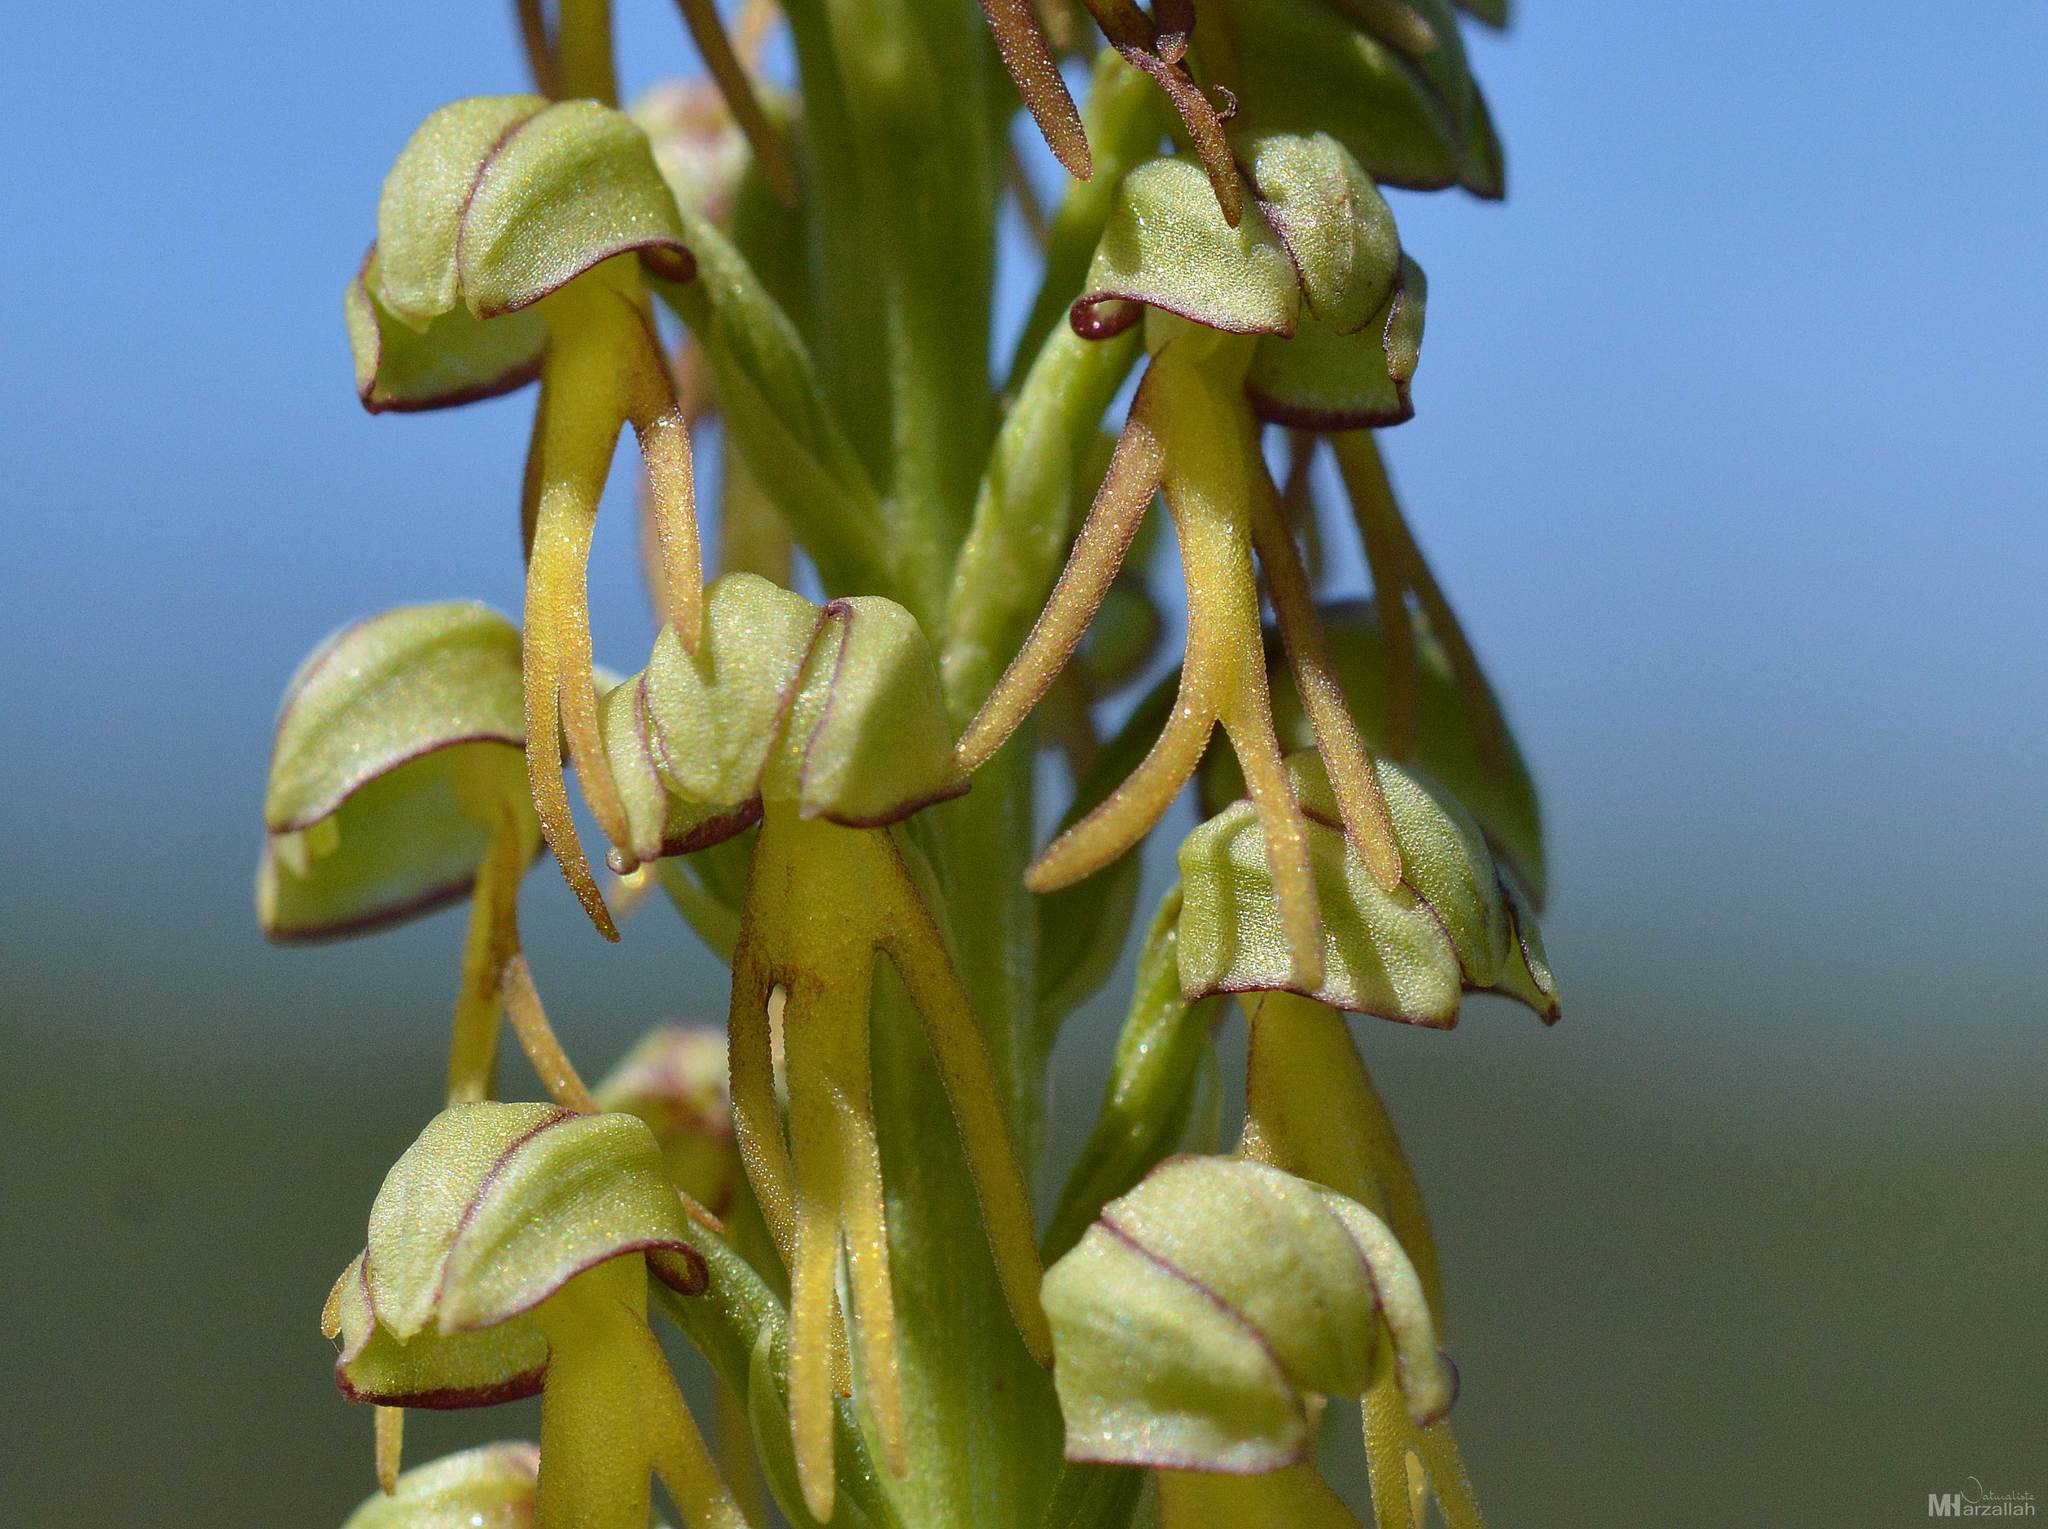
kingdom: Plantae
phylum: Tracheophyta
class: Liliopsida
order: Asparagales
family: Orchidaceae
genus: Orchis
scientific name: Orchis anthropophora
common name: Man orchid
